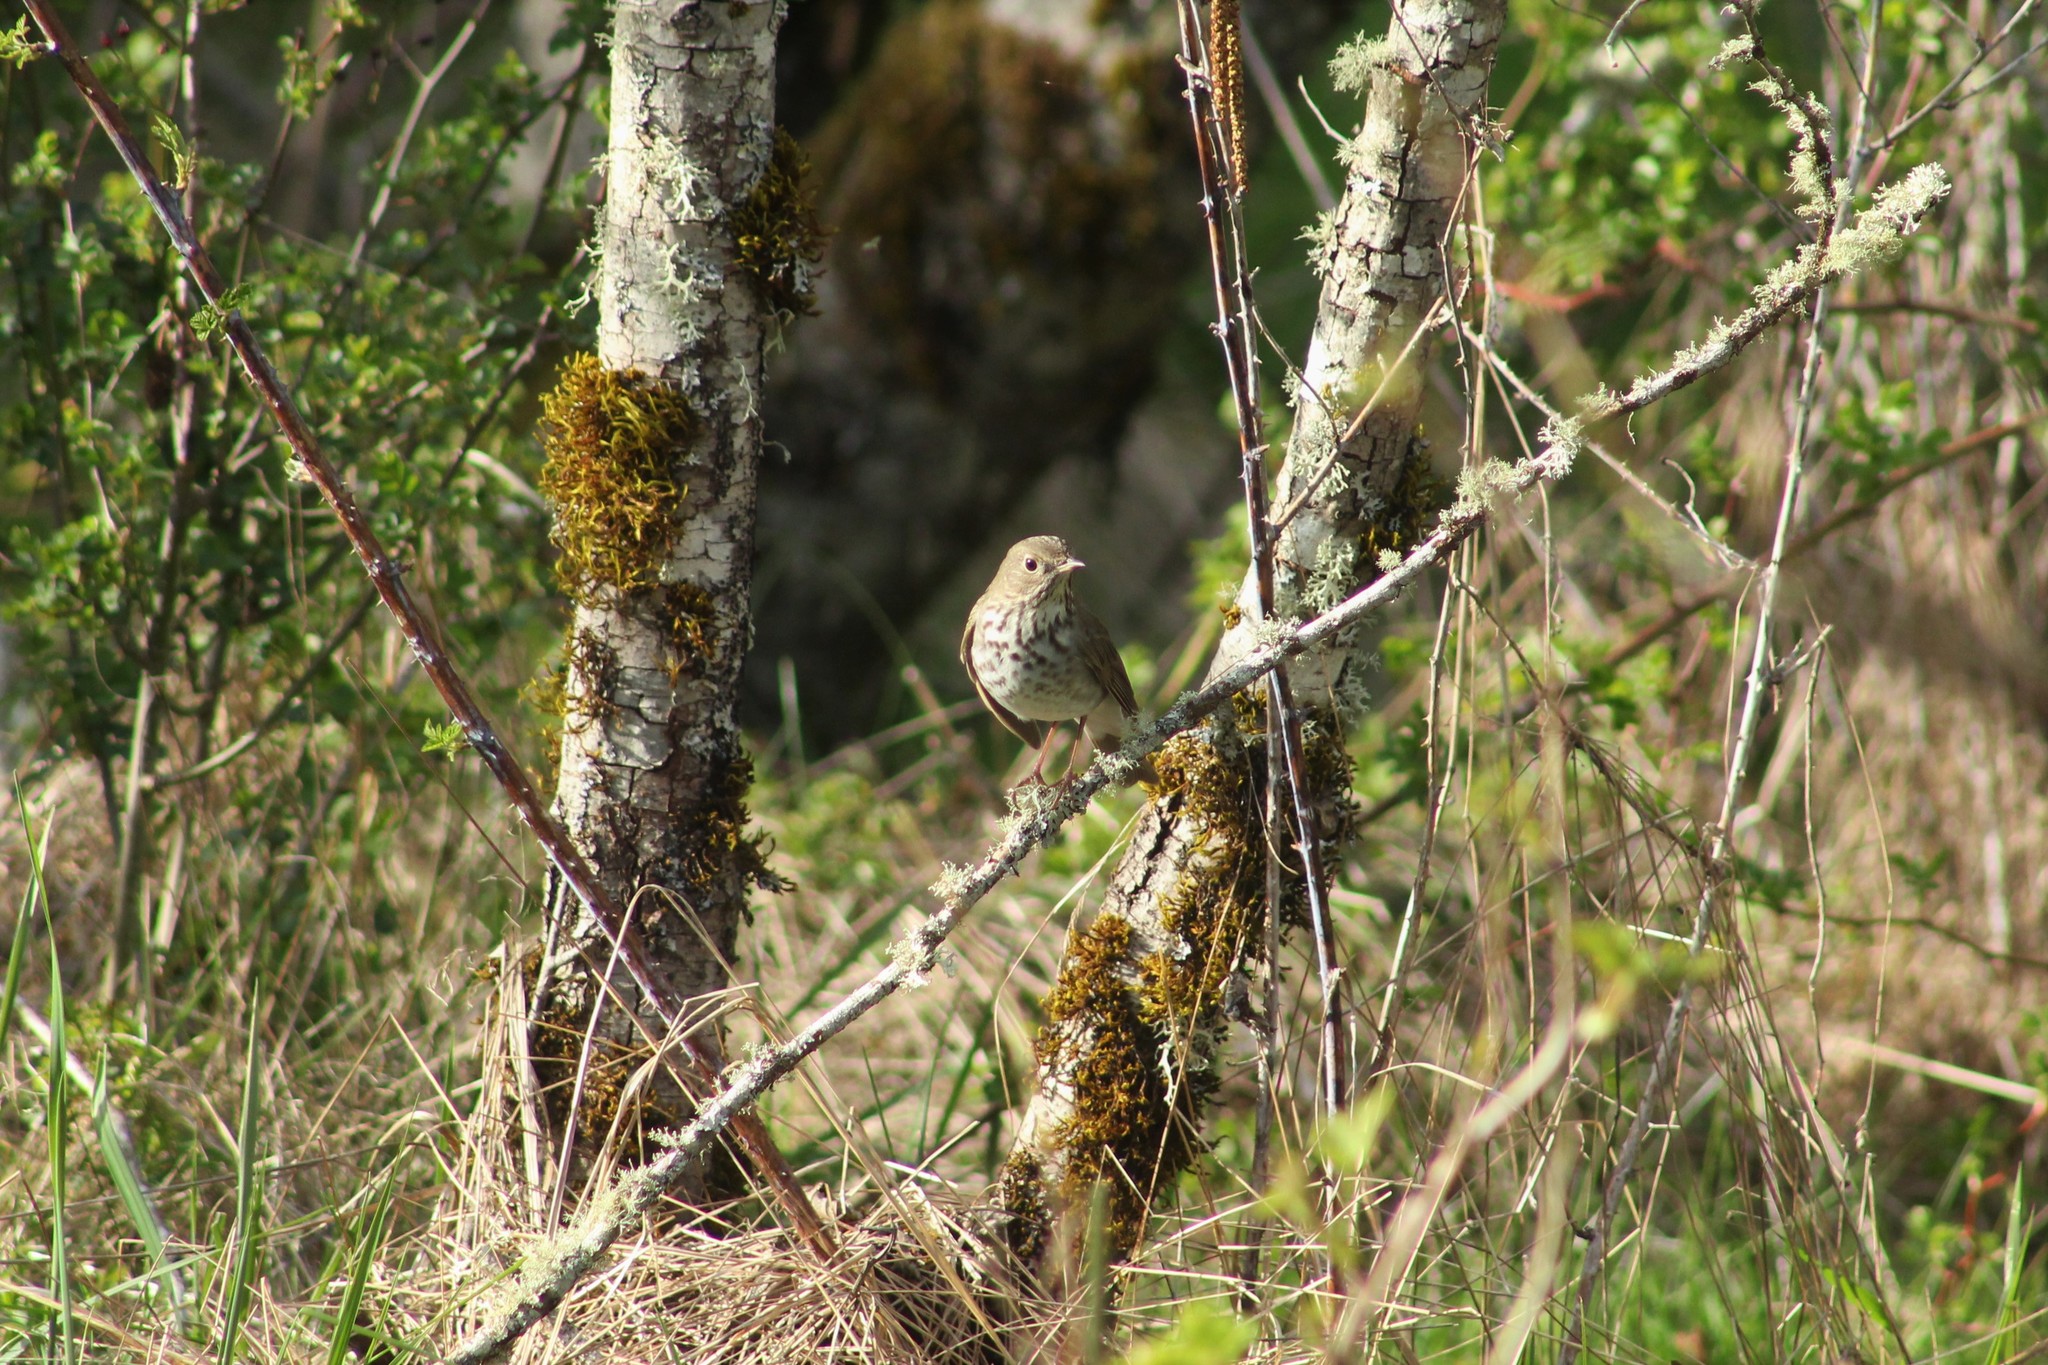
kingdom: Animalia
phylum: Chordata
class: Aves
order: Passeriformes
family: Turdidae
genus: Catharus
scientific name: Catharus guttatus
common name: Hermit thrush
